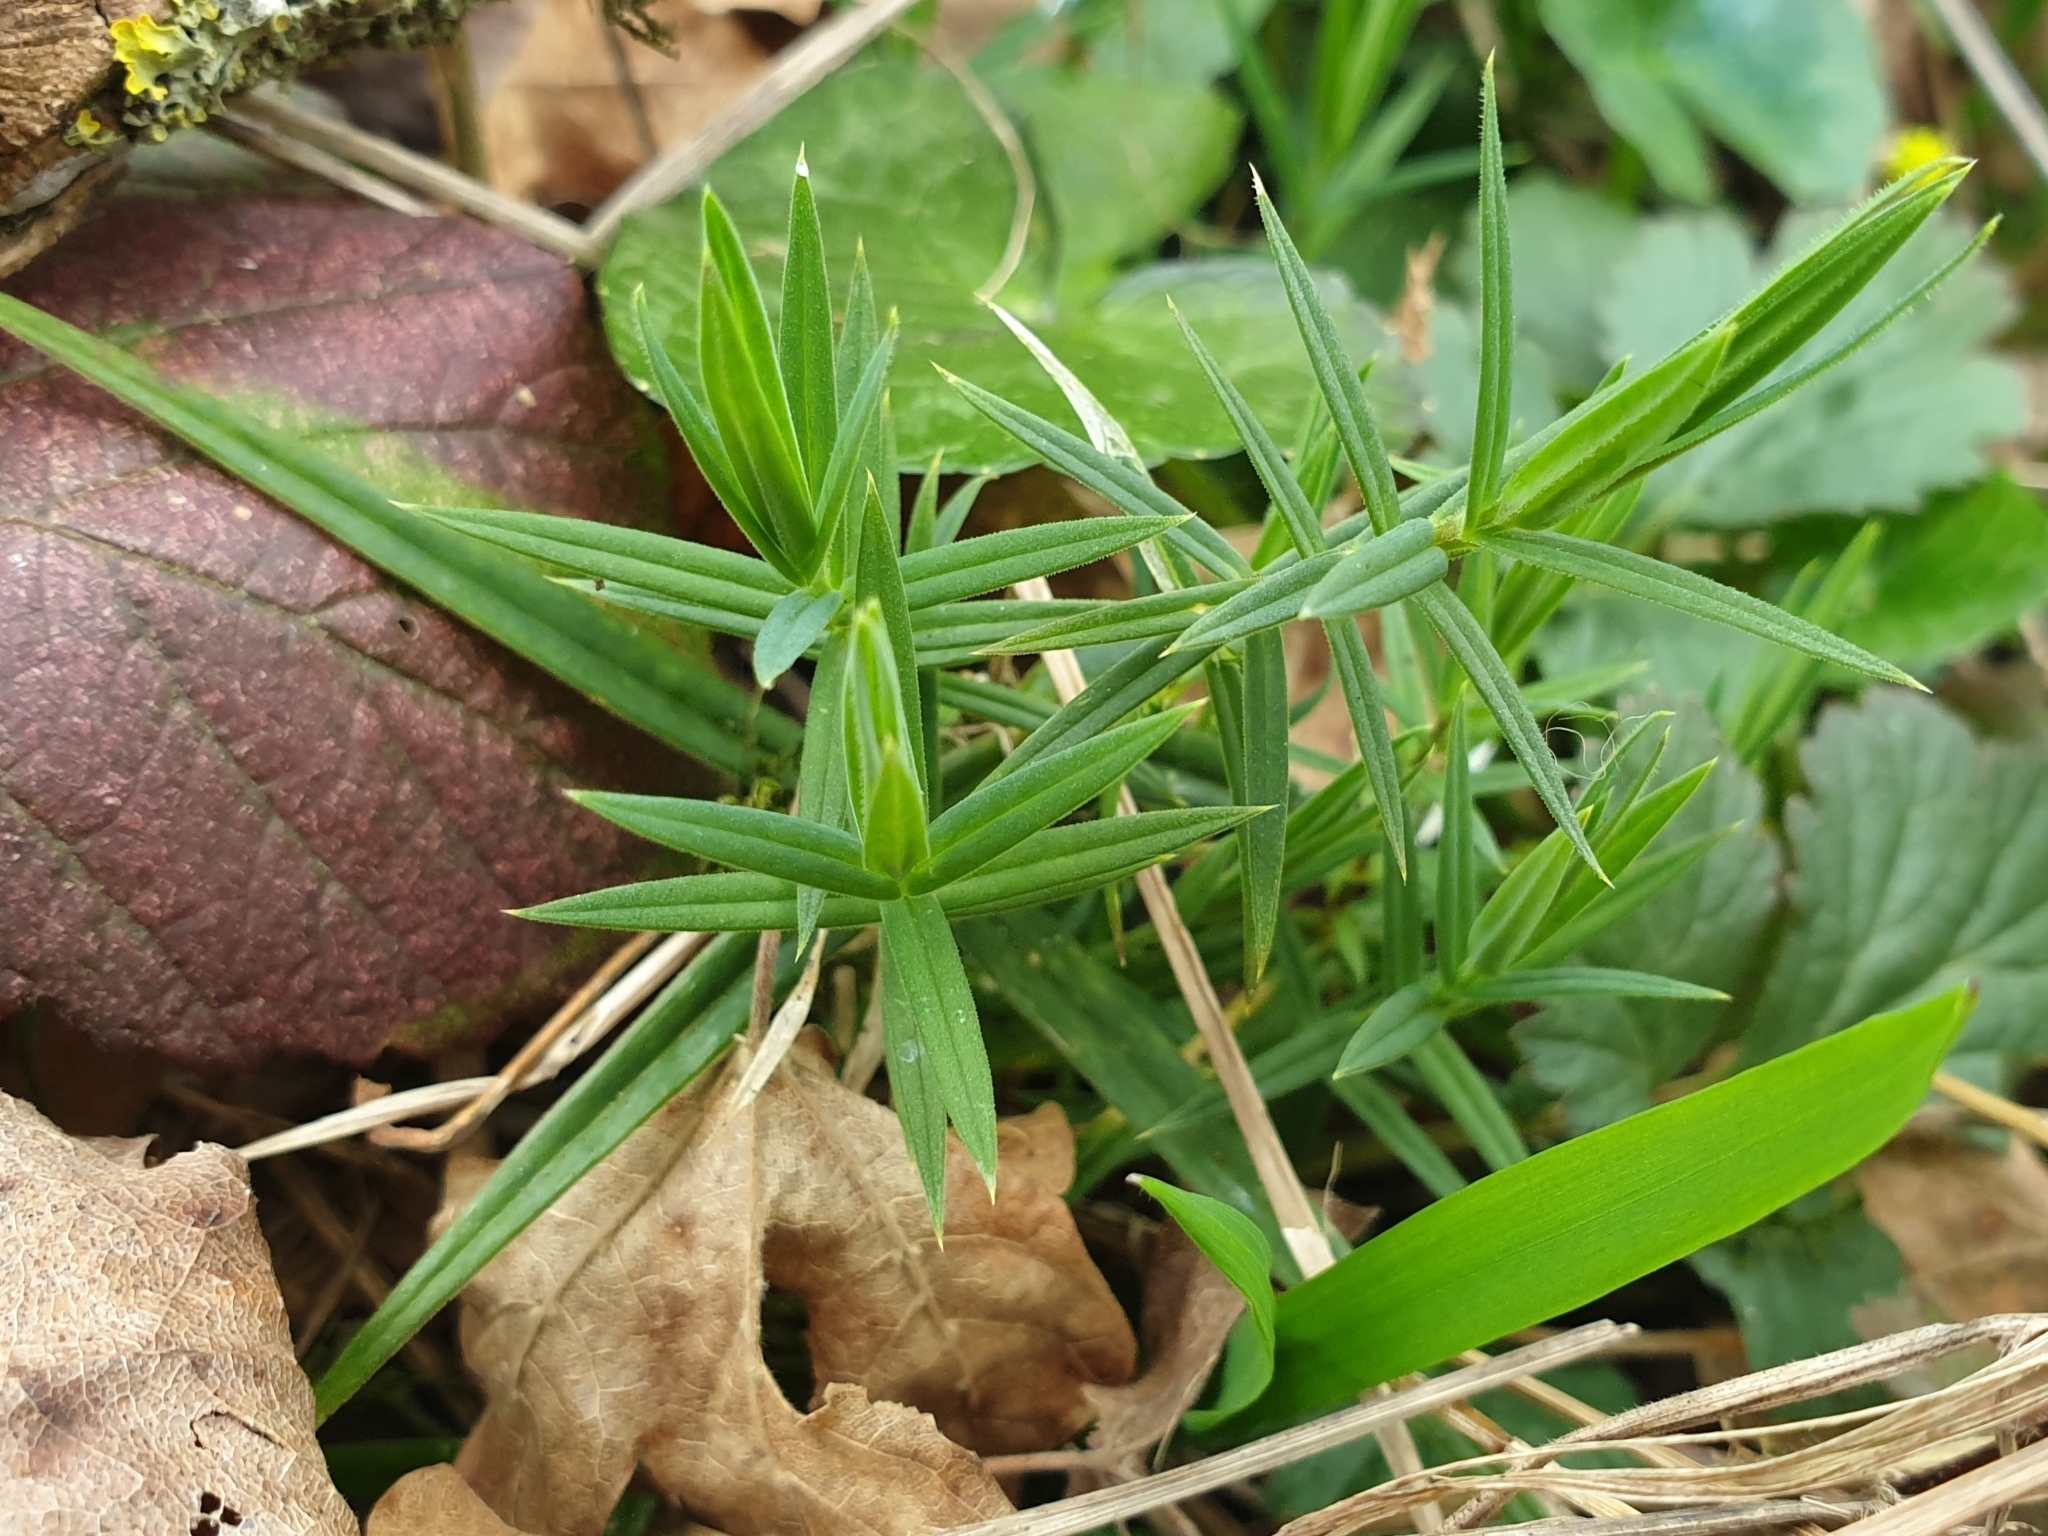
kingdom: Plantae
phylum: Tracheophyta
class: Magnoliopsida
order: Caryophyllales
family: Caryophyllaceae
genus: Rabelera
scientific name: Rabelera holostea
